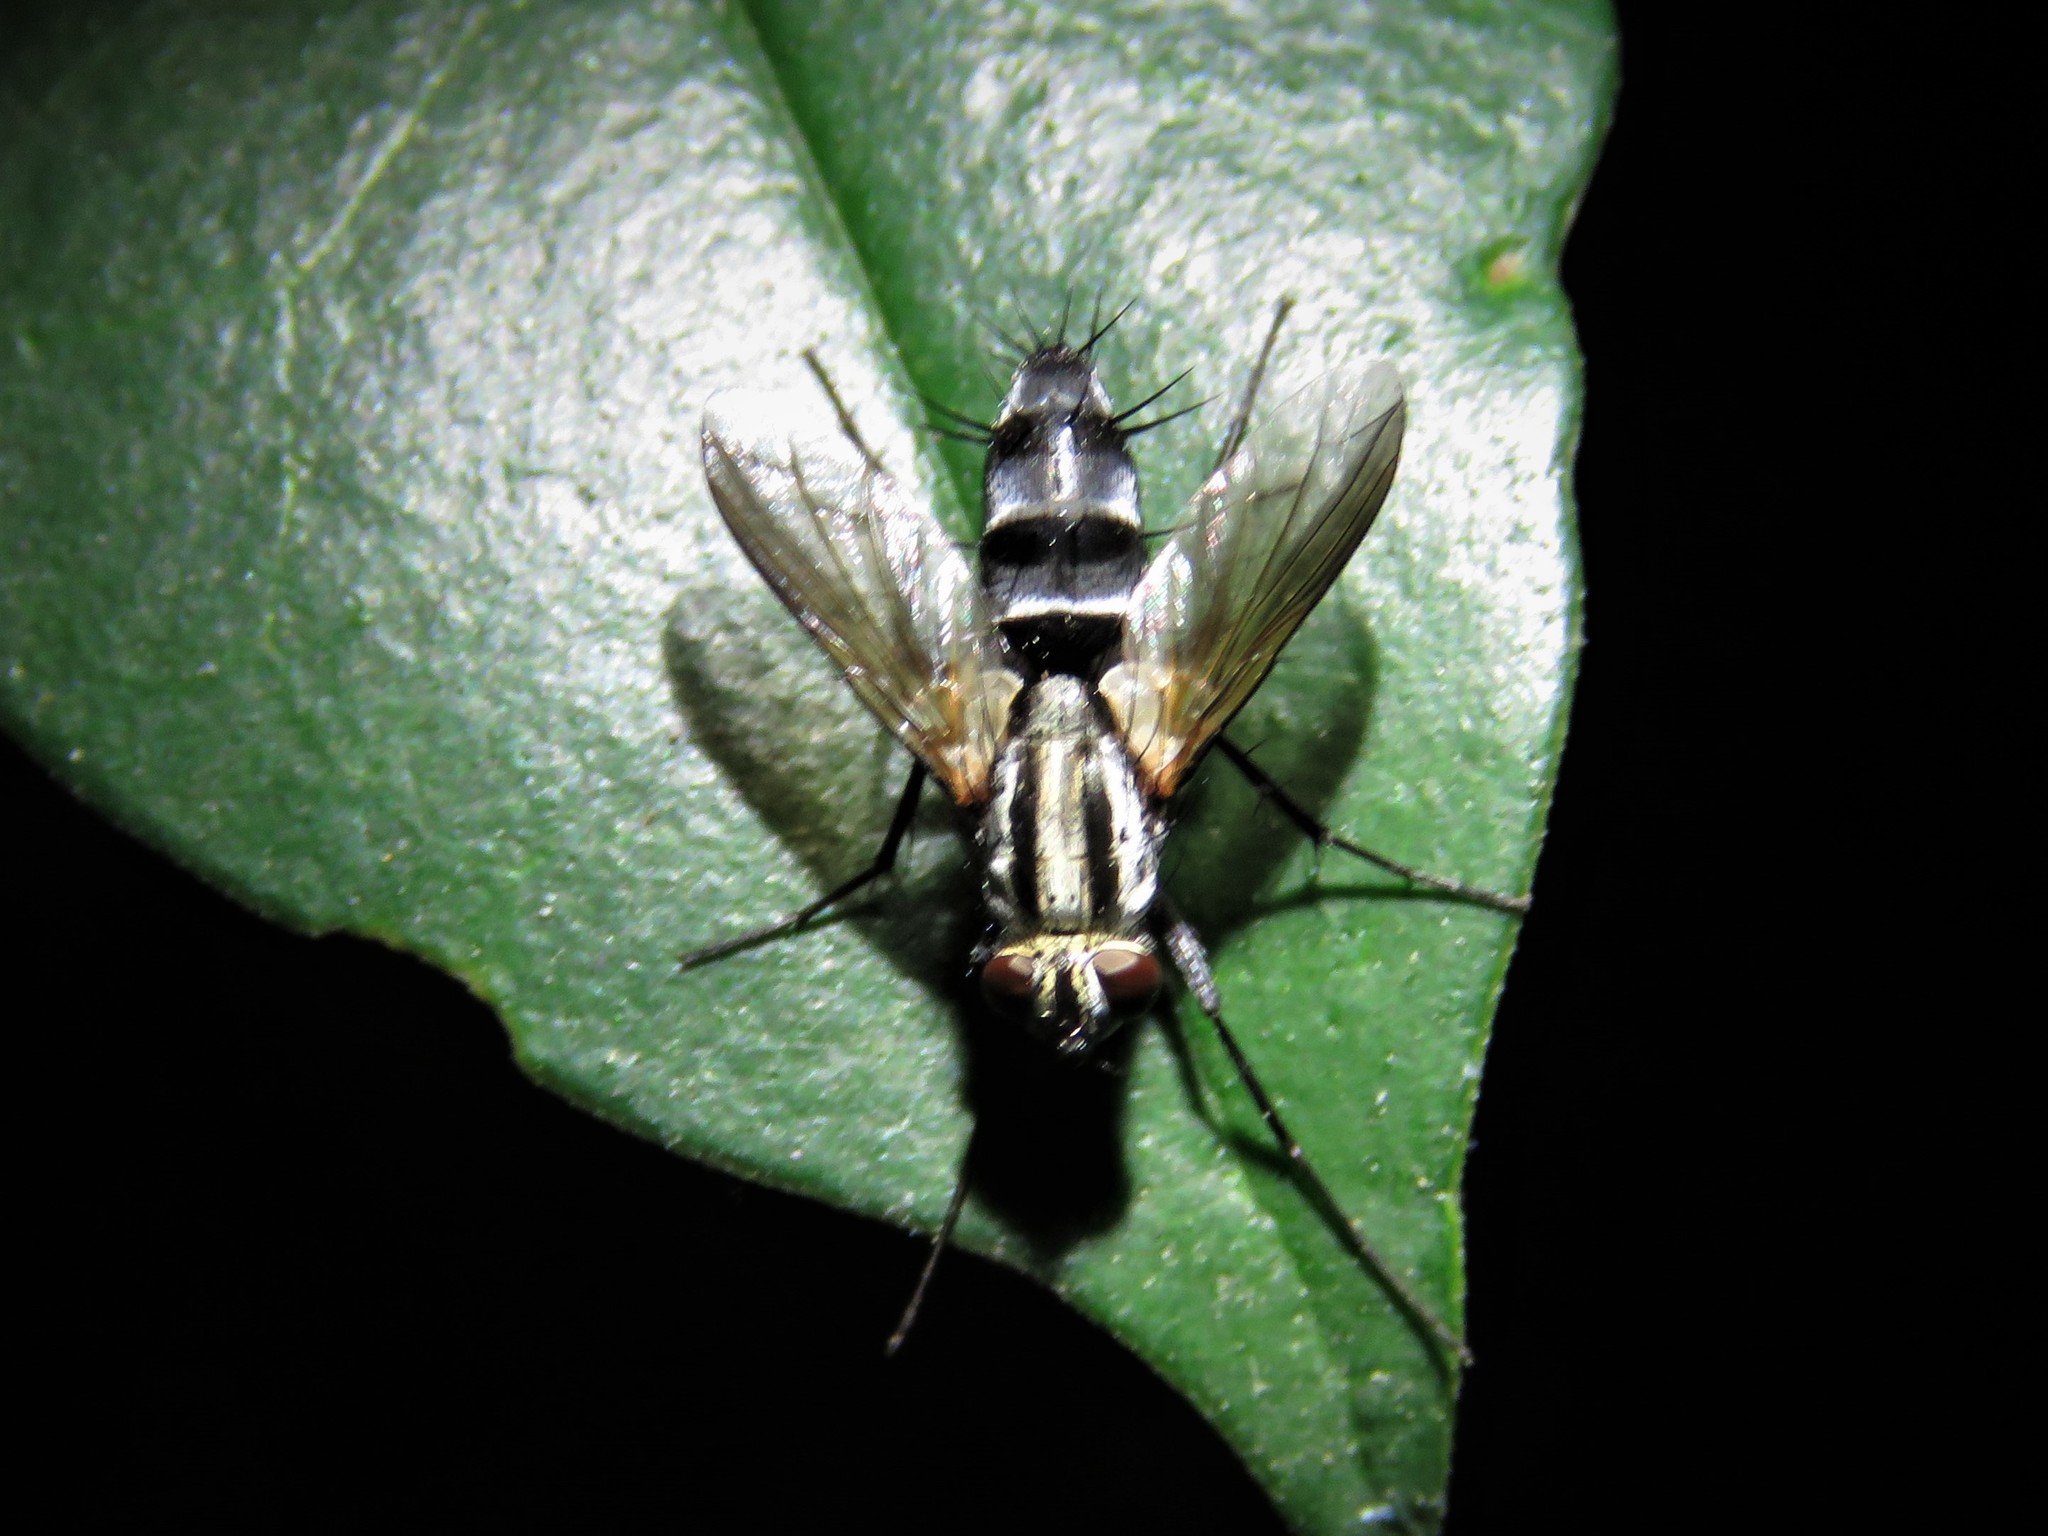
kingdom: Animalia
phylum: Arthropoda
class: Insecta
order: Diptera
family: Tachinidae
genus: Vanderwulpia
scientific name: Vanderwulpia sequens
